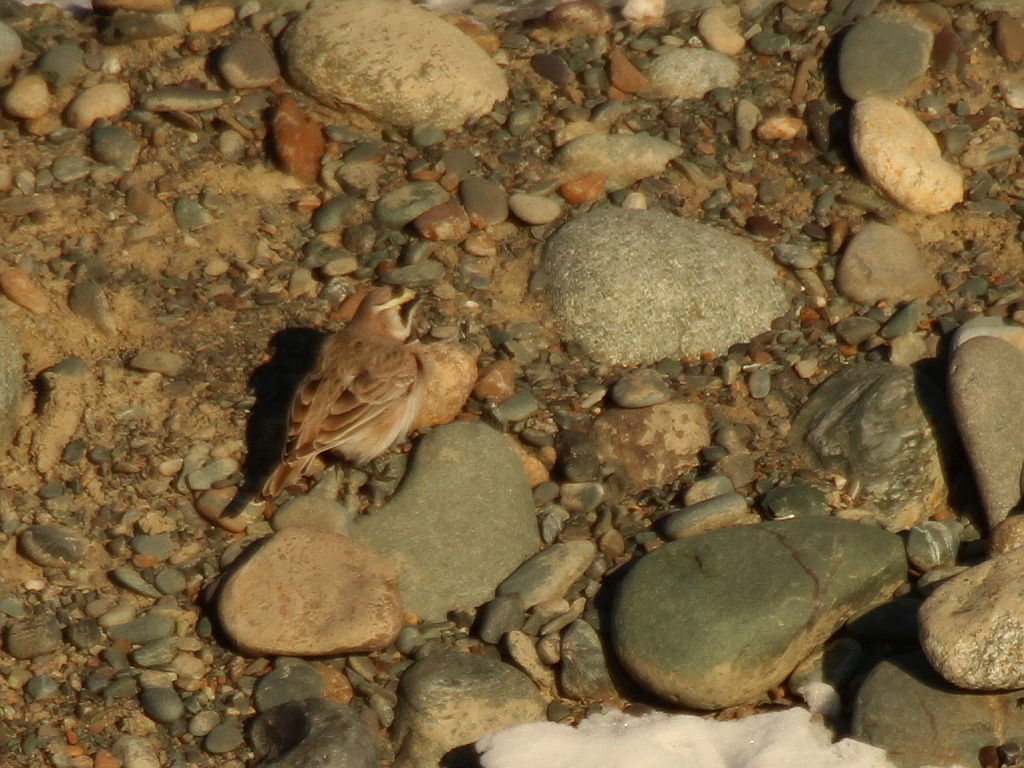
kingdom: Animalia
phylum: Chordata
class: Aves
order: Passeriformes
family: Alaudidae
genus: Eremophila
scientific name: Eremophila alpestris
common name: Horned lark
